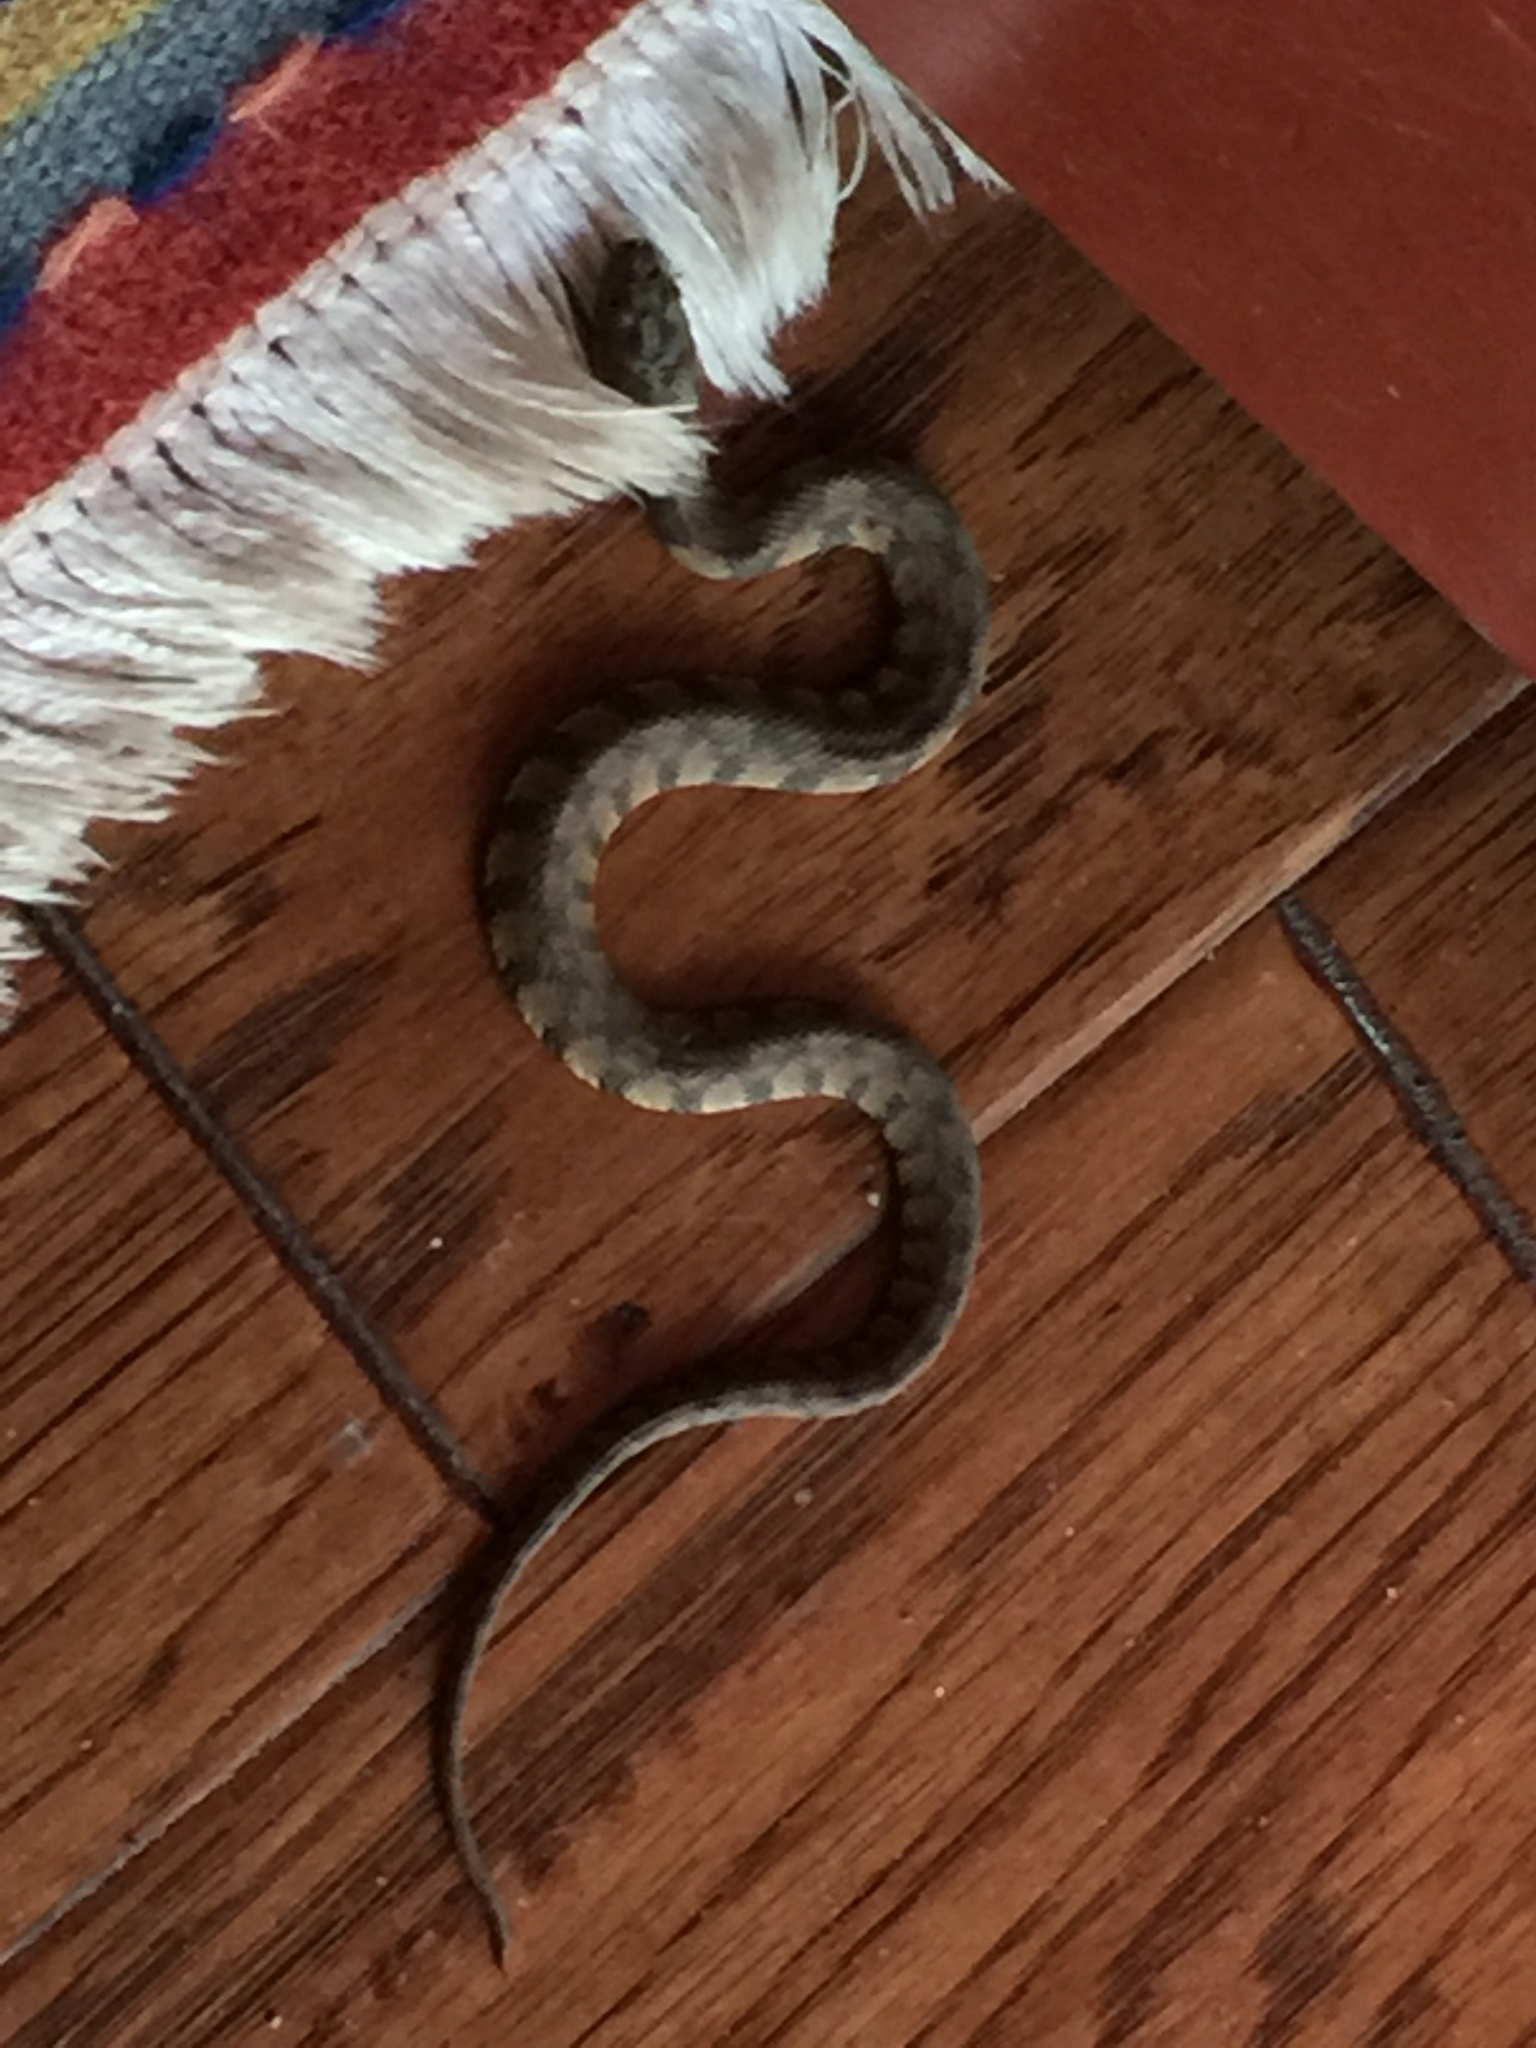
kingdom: Animalia
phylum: Chordata
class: Squamata
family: Colubridae
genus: Nerodia
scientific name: Nerodia rhombifer
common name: Diamondback water snake
